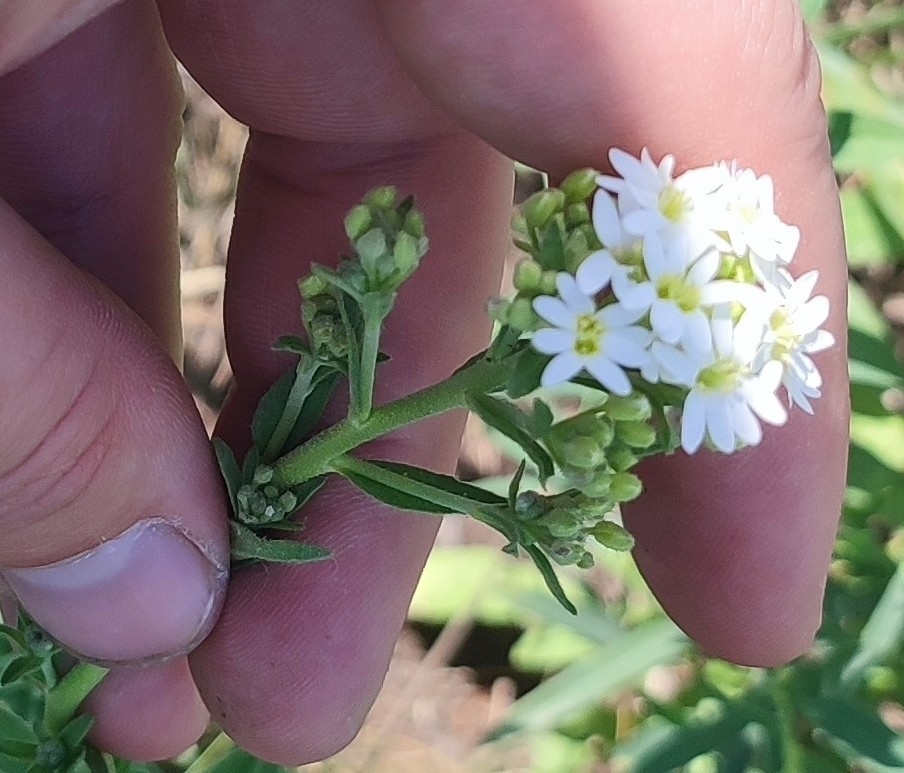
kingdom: Plantae
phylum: Tracheophyta
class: Magnoliopsida
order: Brassicales
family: Brassicaceae
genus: Berteroa
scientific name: Berteroa incana
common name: Hoary alison
